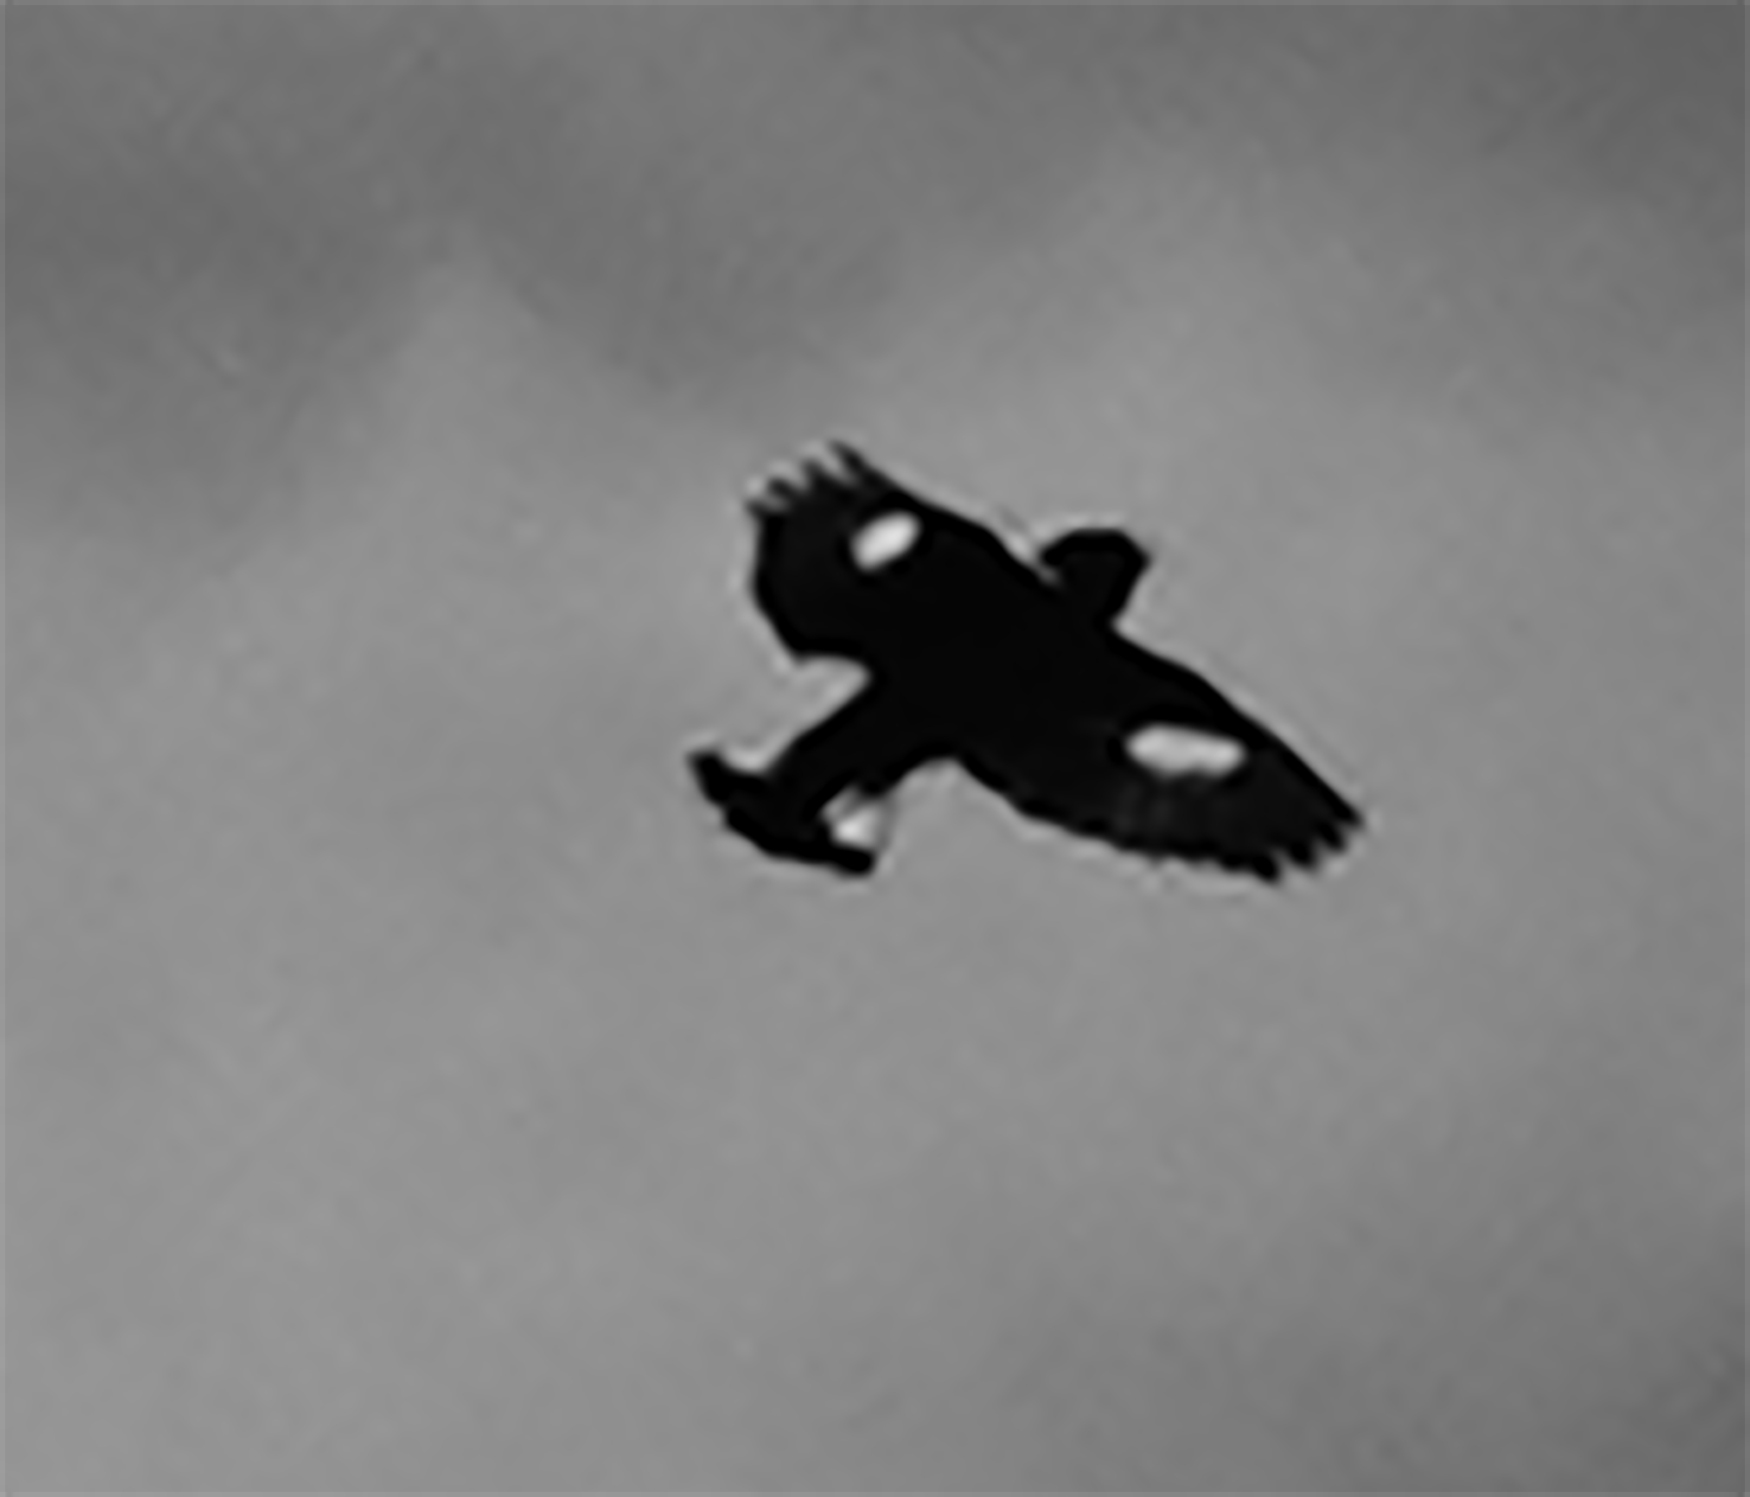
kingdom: Animalia
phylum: Chordata
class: Aves
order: Passeriformes
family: Fringillidae
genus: Spinus
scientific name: Spinus psaltria
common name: Lesser goldfinch
